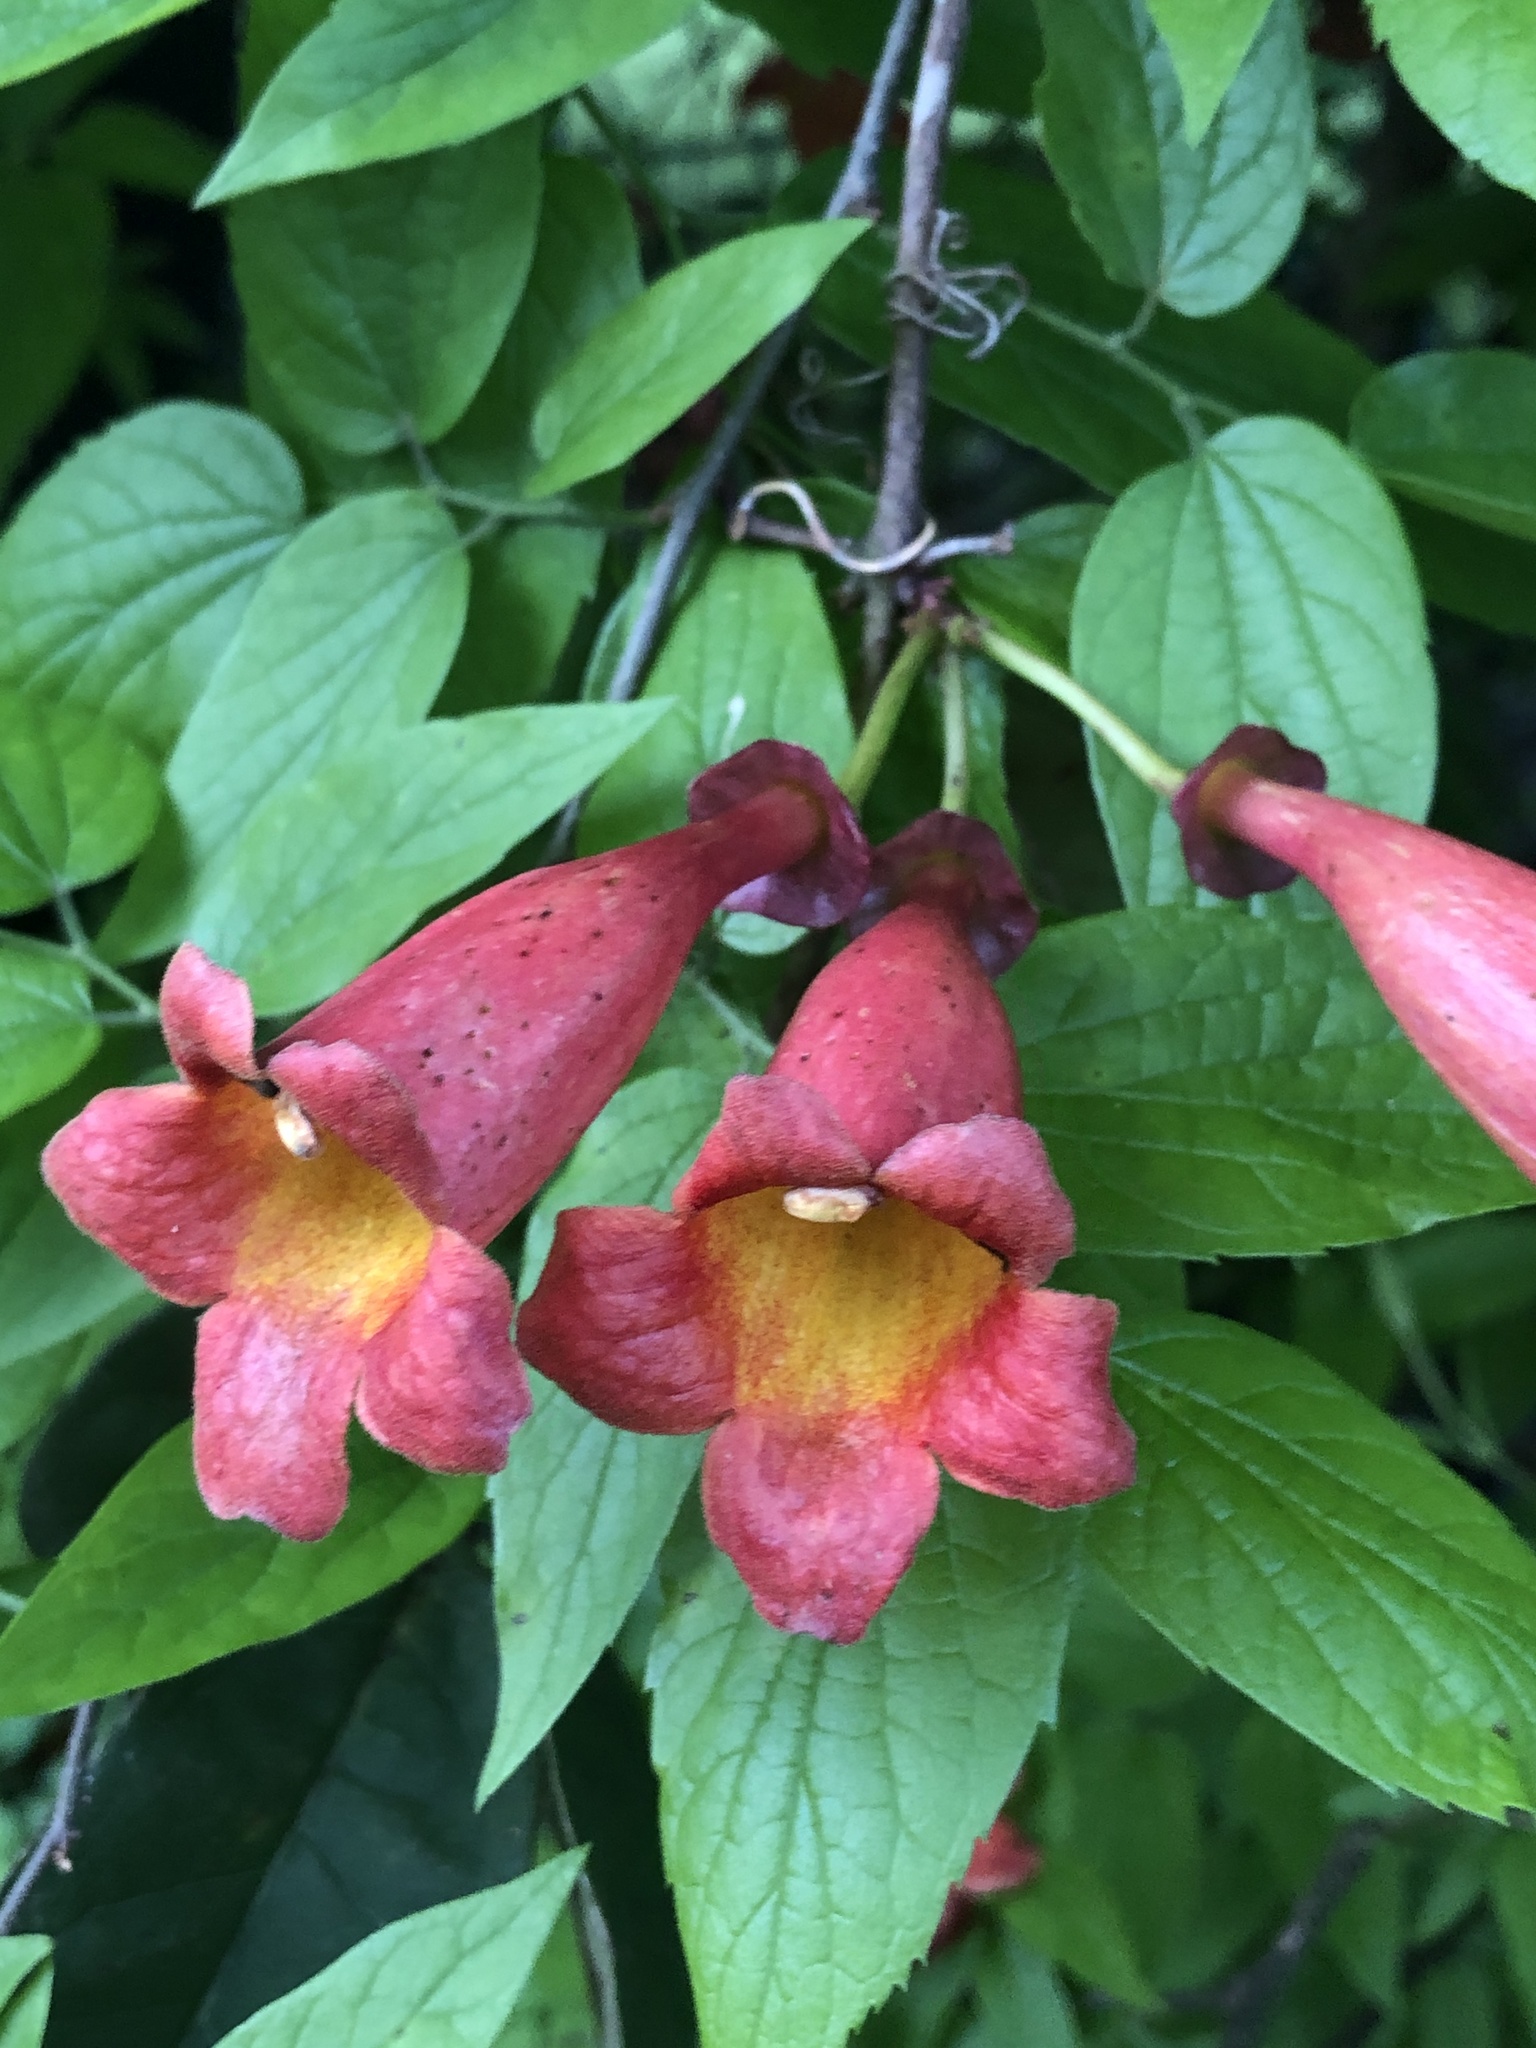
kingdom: Plantae
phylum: Tracheophyta
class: Magnoliopsida
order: Lamiales
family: Bignoniaceae
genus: Bignonia
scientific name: Bignonia capreolata
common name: Crossvine
